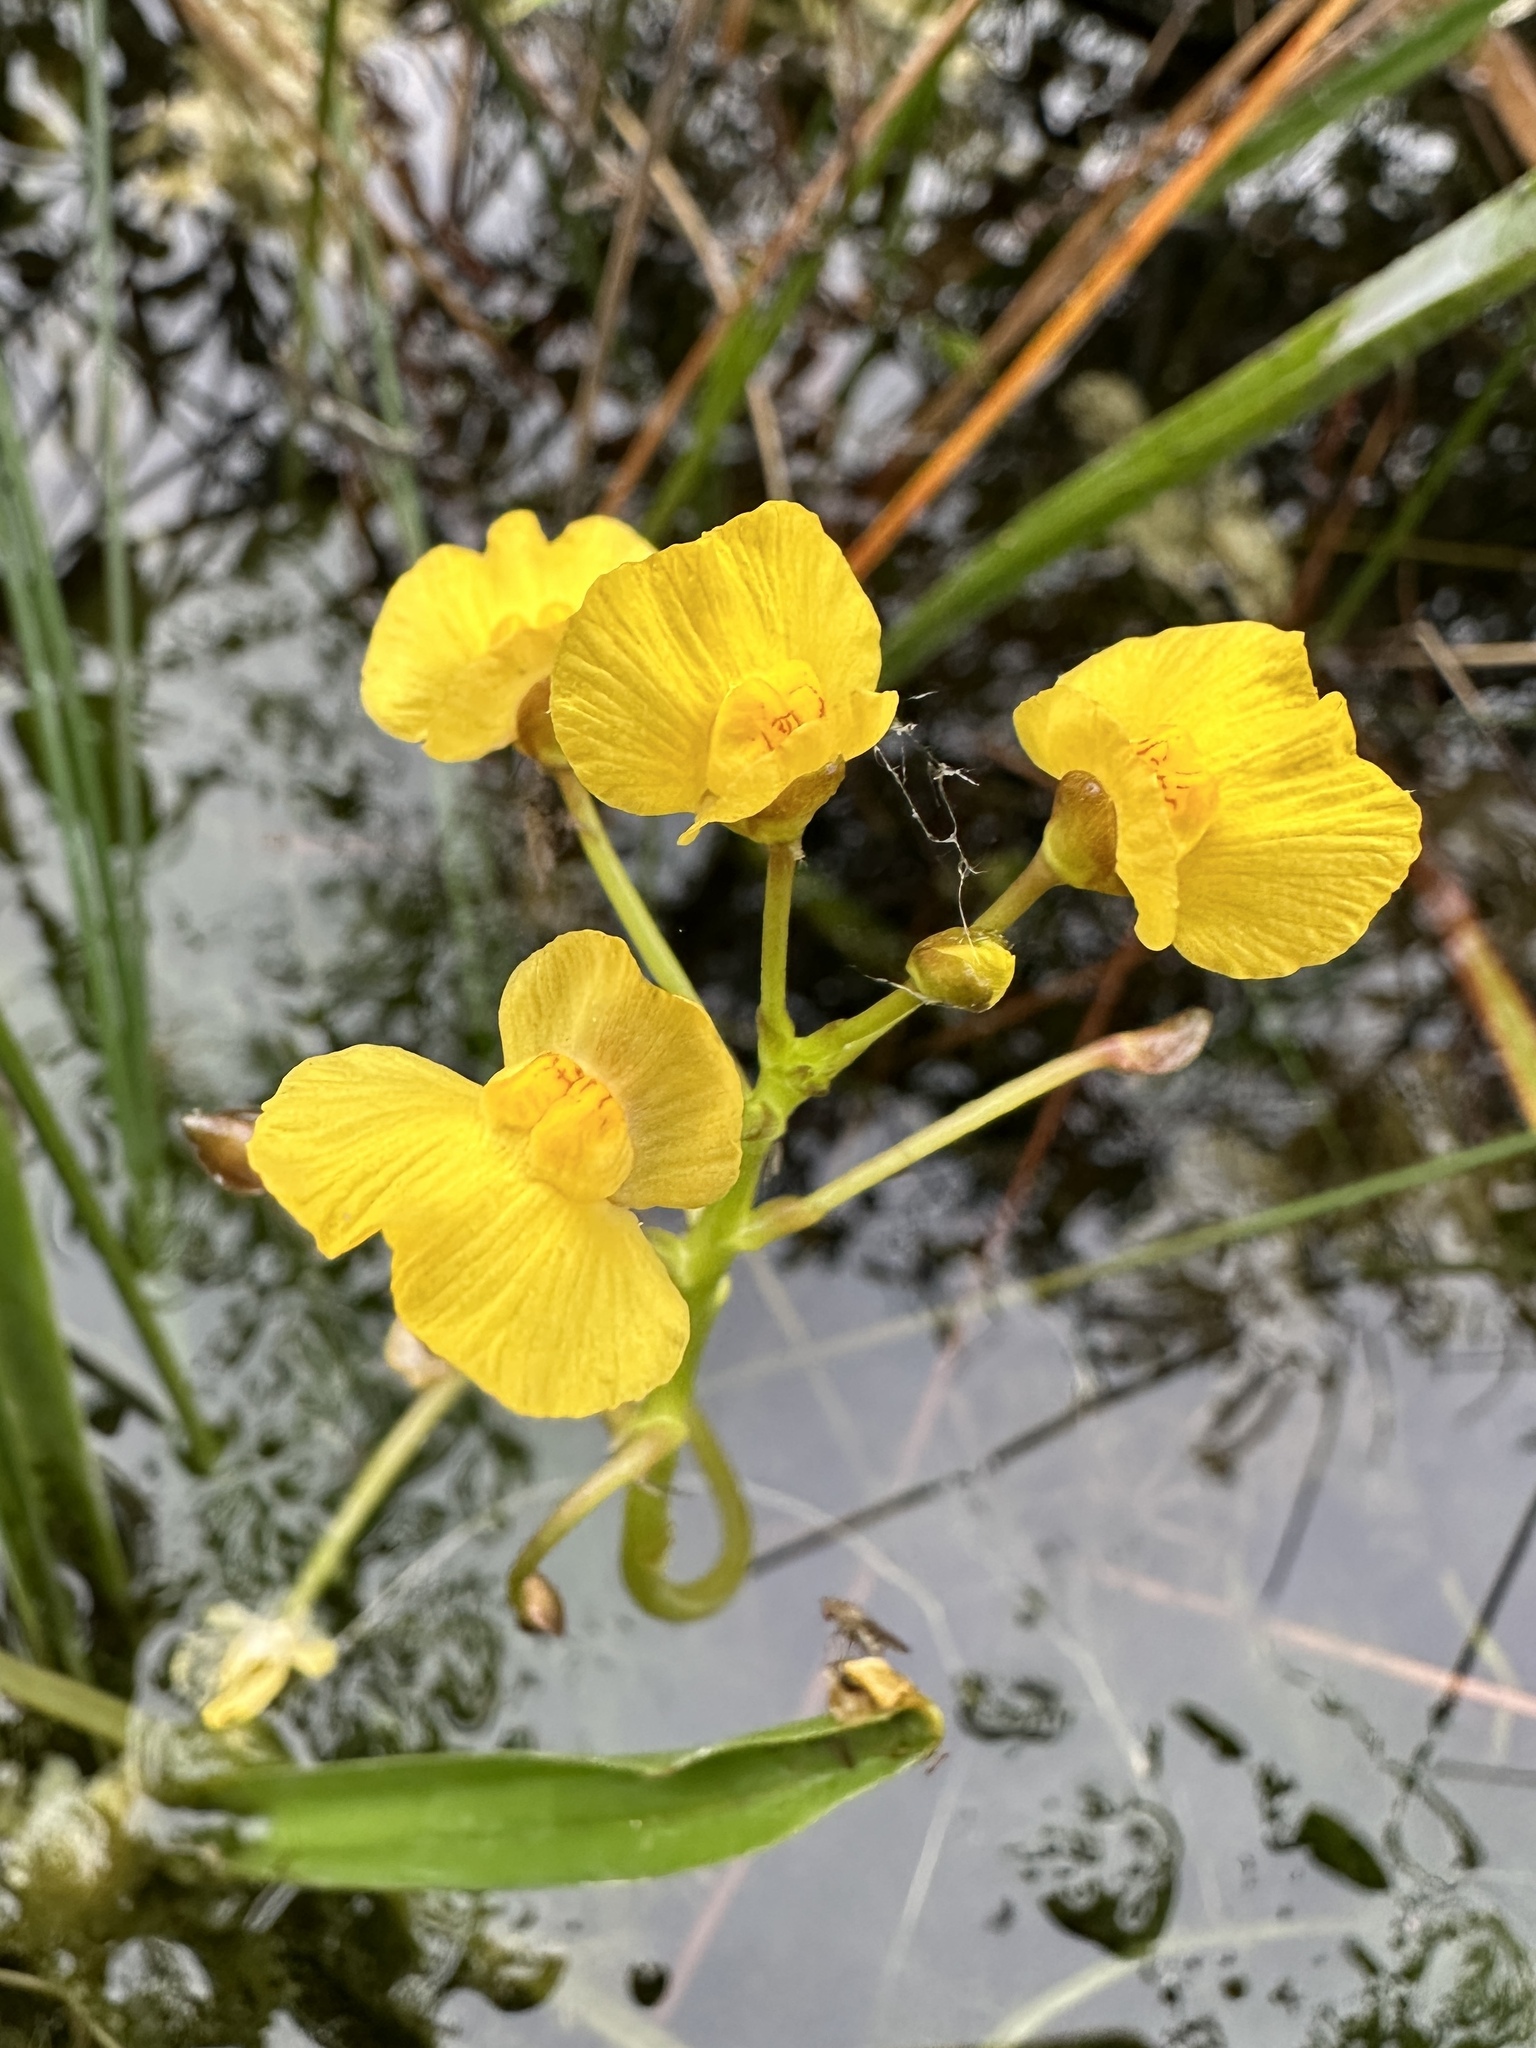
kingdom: Plantae
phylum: Tracheophyta
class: Magnoliopsida
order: Lamiales
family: Lentibulariaceae
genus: Utricularia
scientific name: Utricularia foliosa
